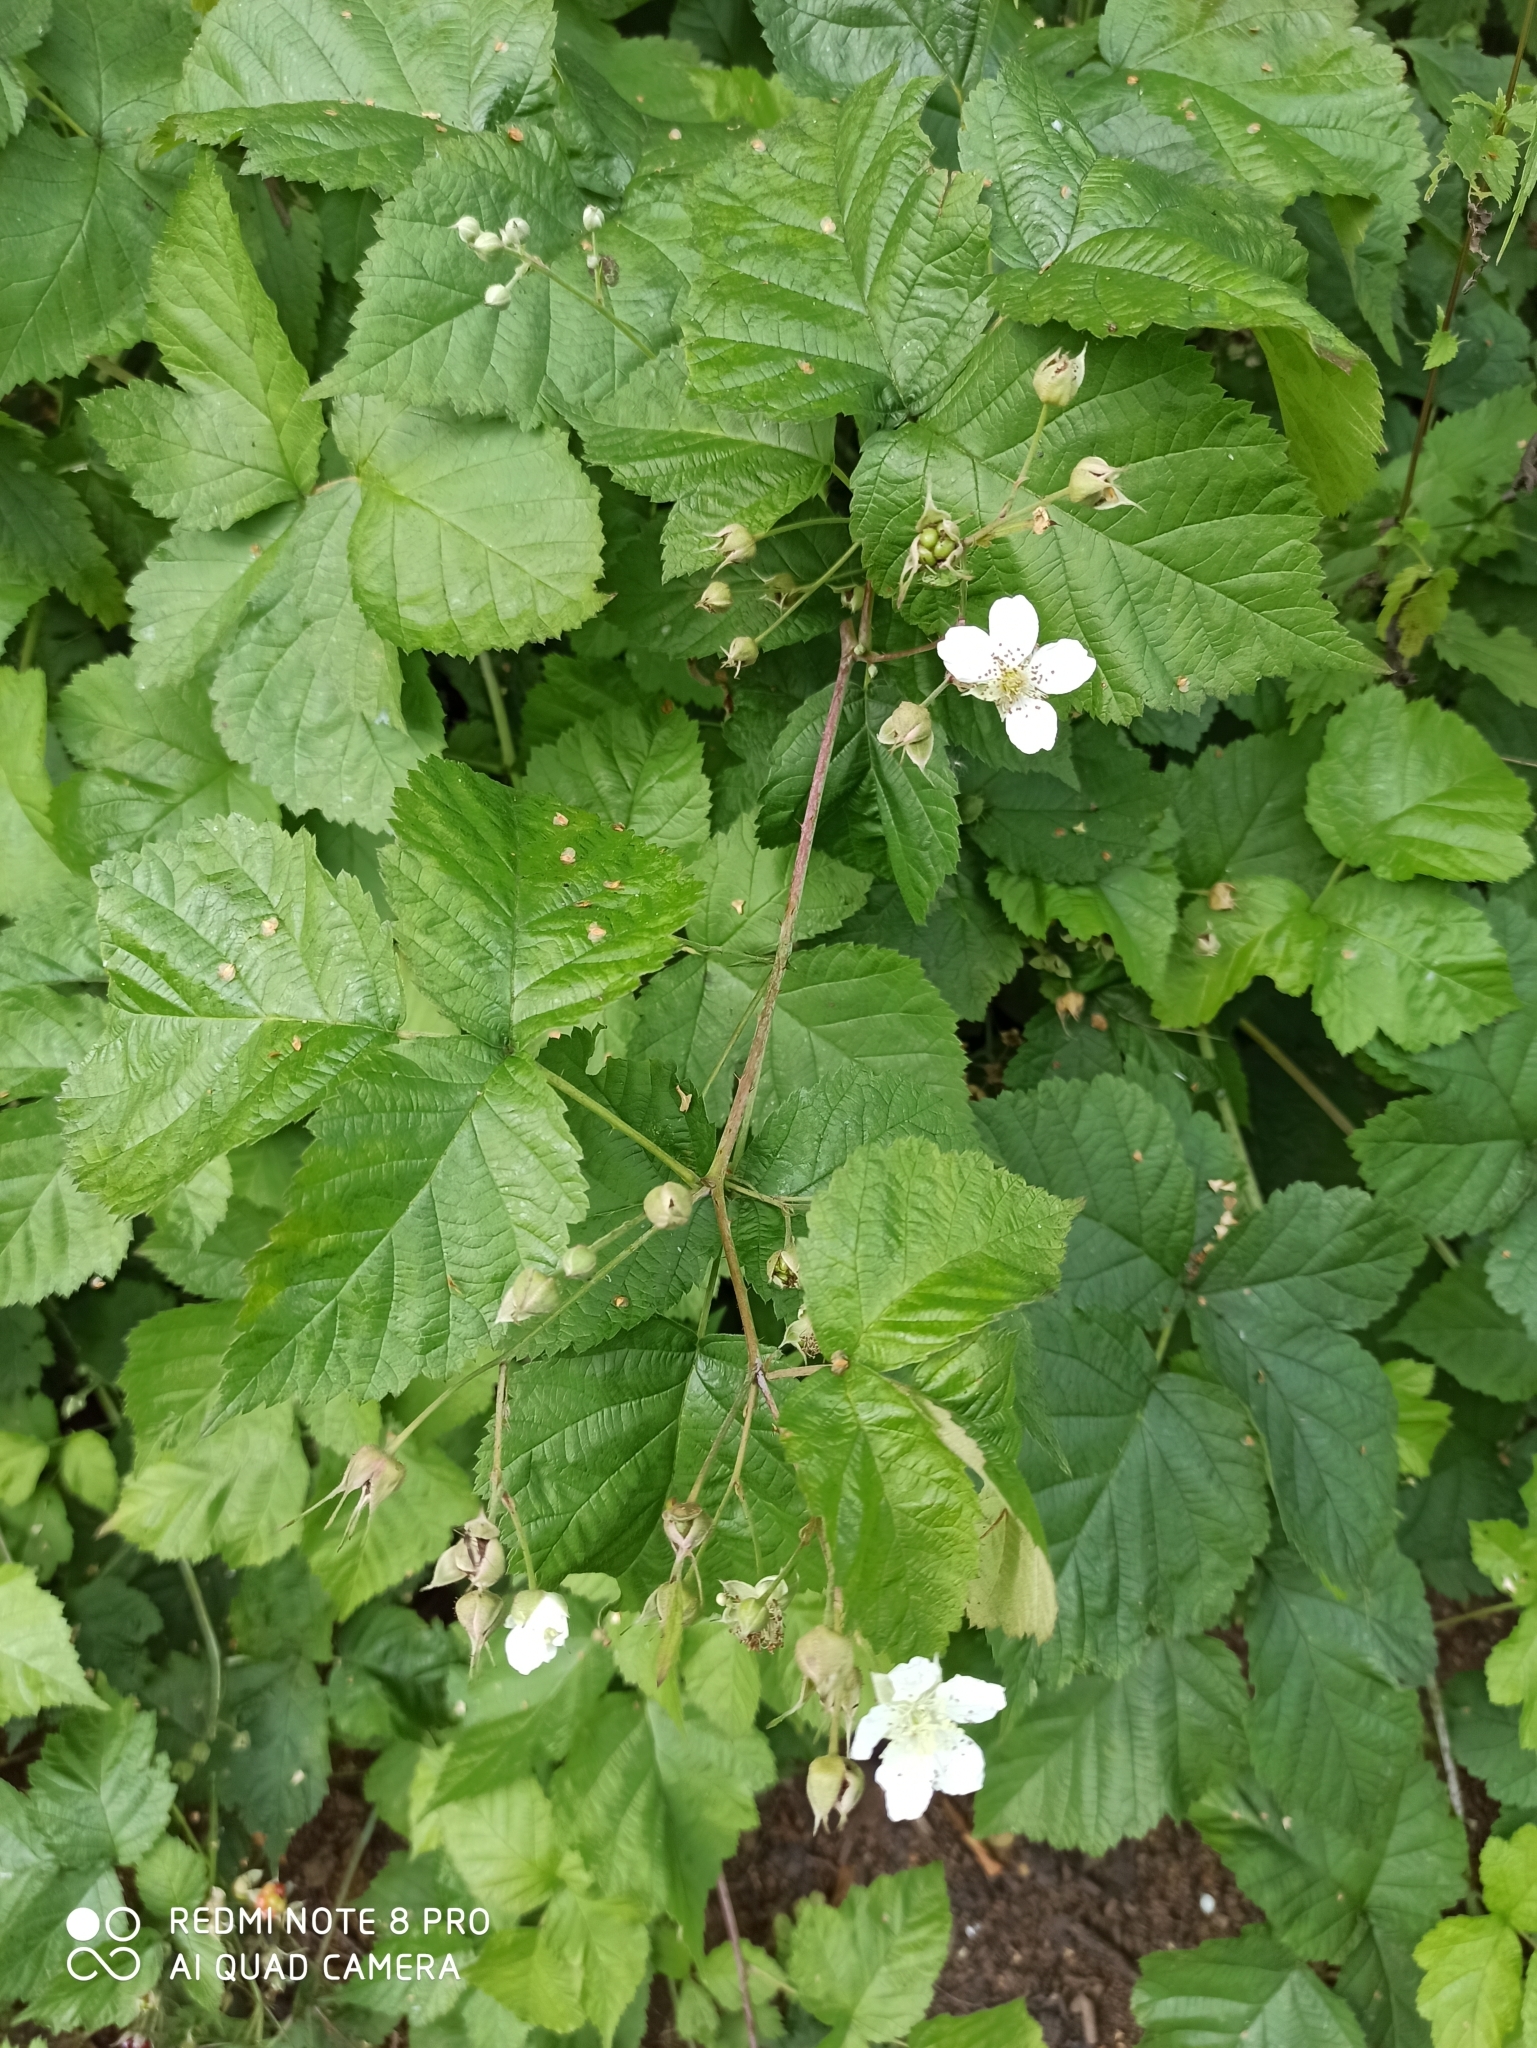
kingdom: Plantae
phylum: Tracheophyta
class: Magnoliopsida
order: Rosales
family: Rosaceae
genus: Rubus
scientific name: Rubus caesius
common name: Dewberry
